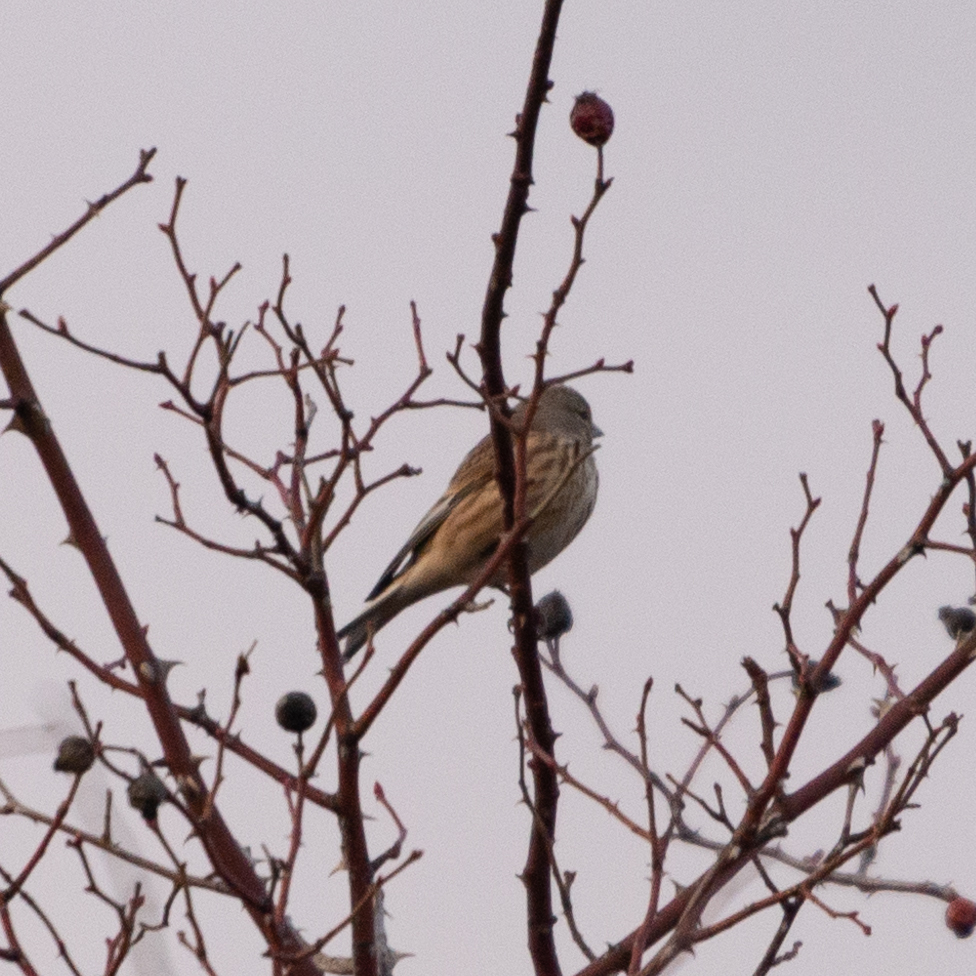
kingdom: Animalia
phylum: Chordata
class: Aves
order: Passeriformes
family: Fringillidae
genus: Linaria
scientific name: Linaria cannabina
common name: Common linnet
